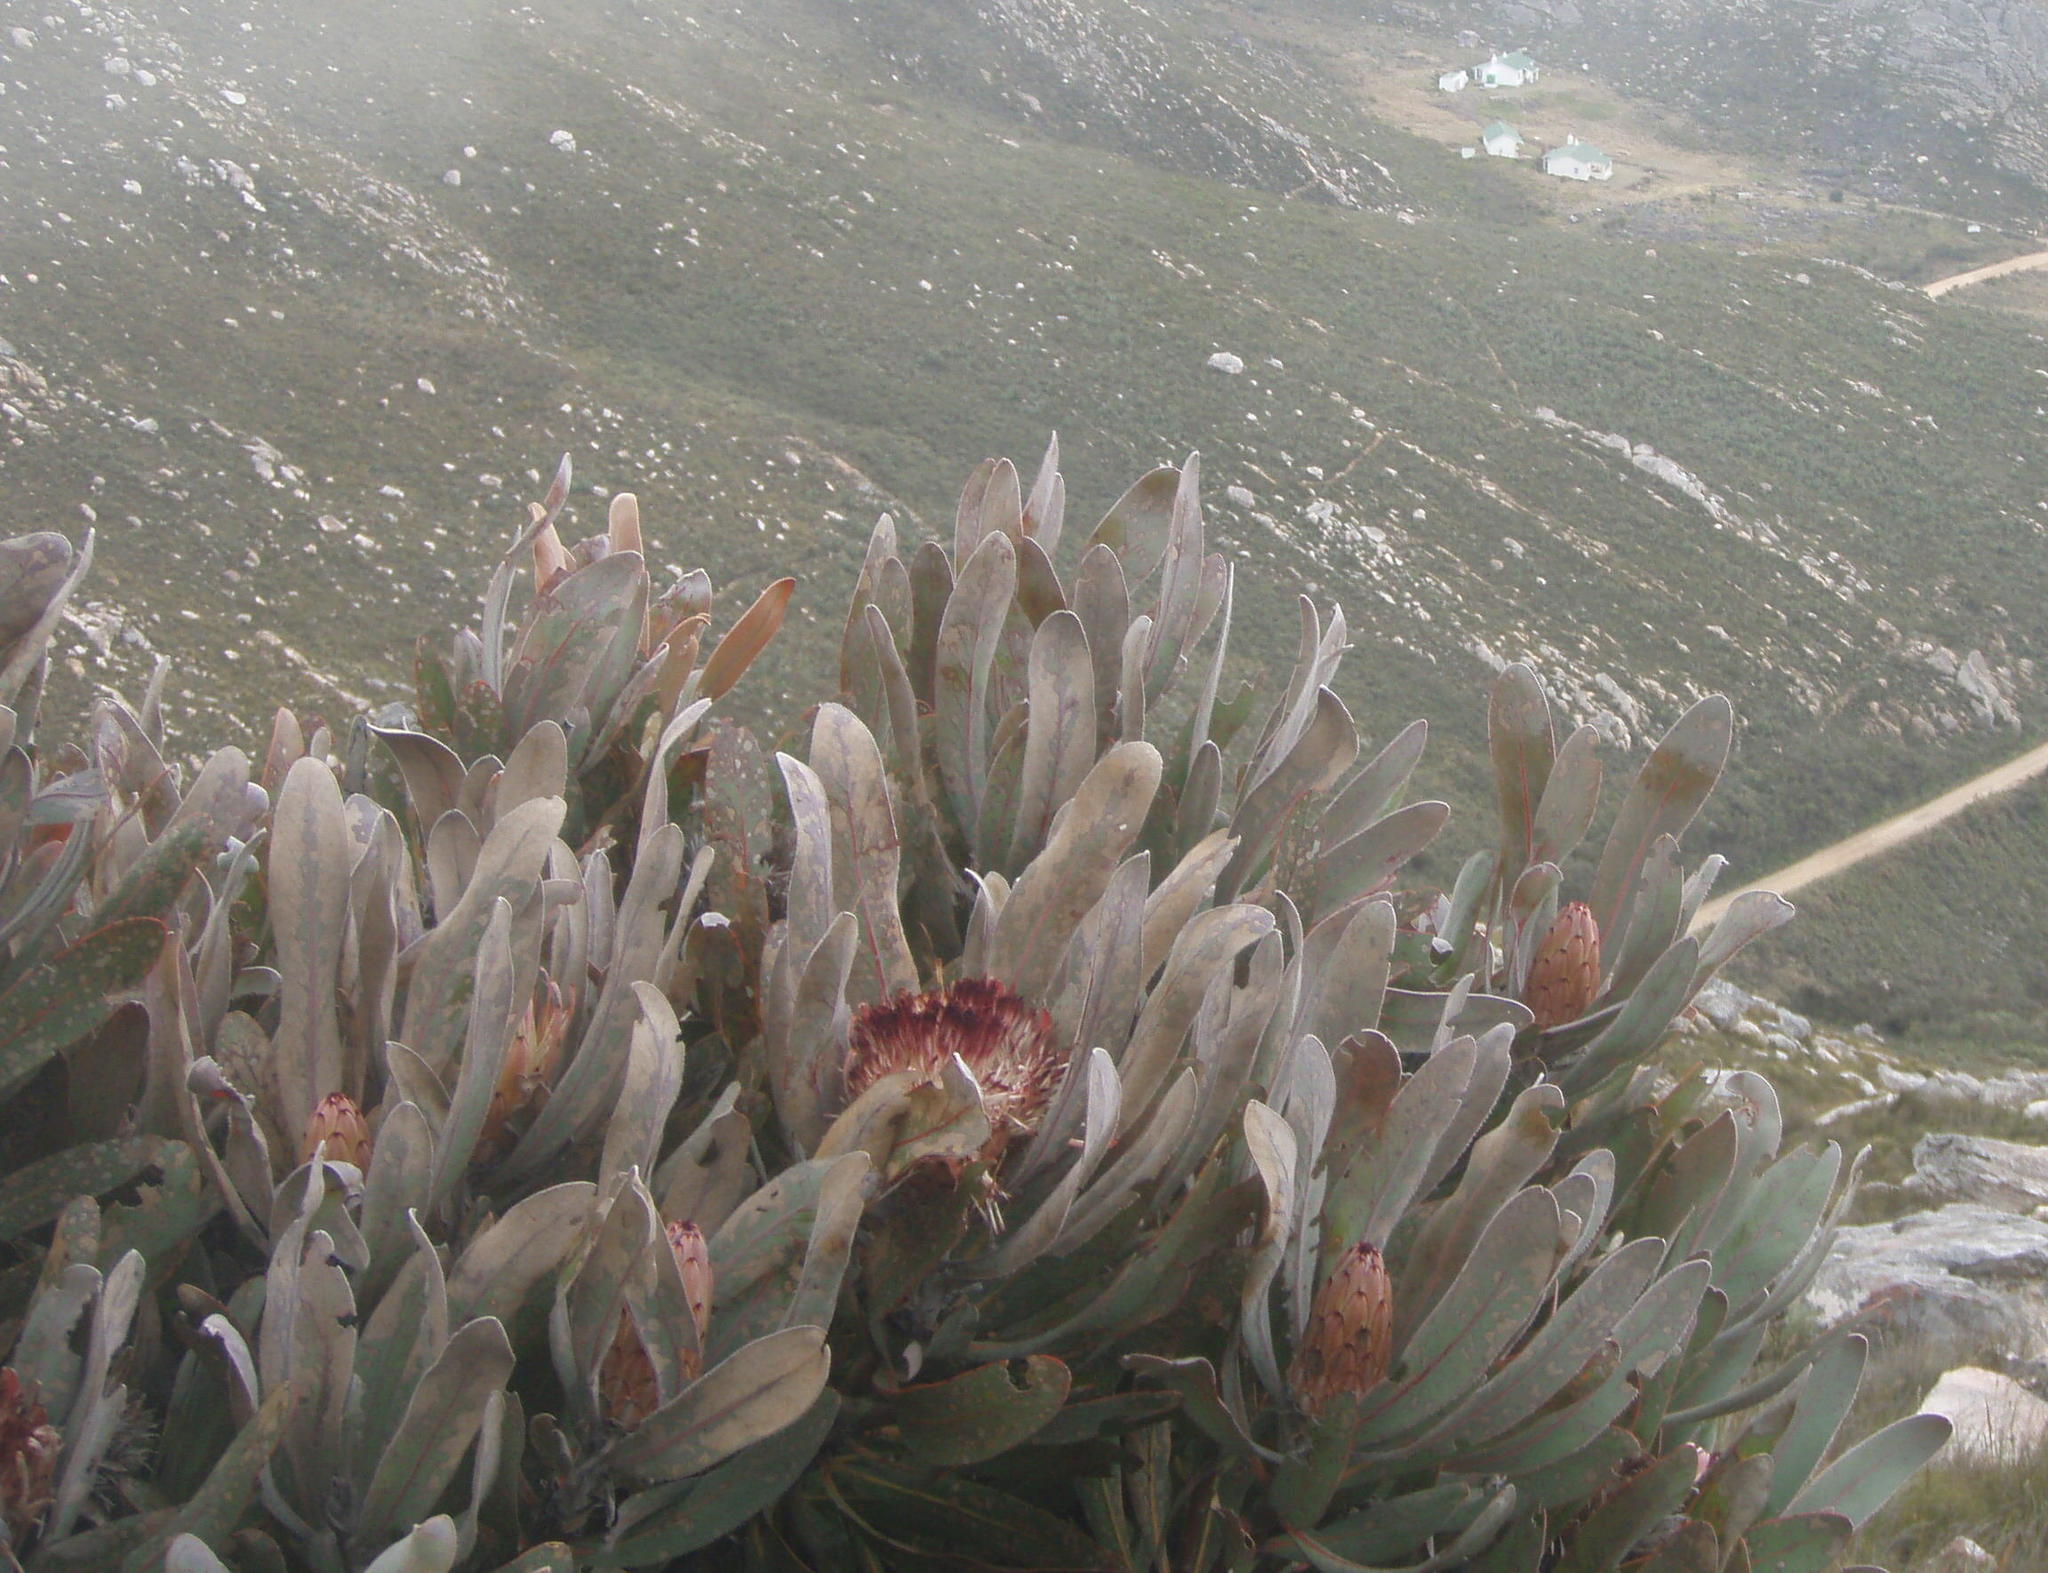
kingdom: Plantae
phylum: Tracheophyta
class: Magnoliopsida
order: Proteales
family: Proteaceae
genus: Protea
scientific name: Protea lorifolia
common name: Strap-leaved protea
